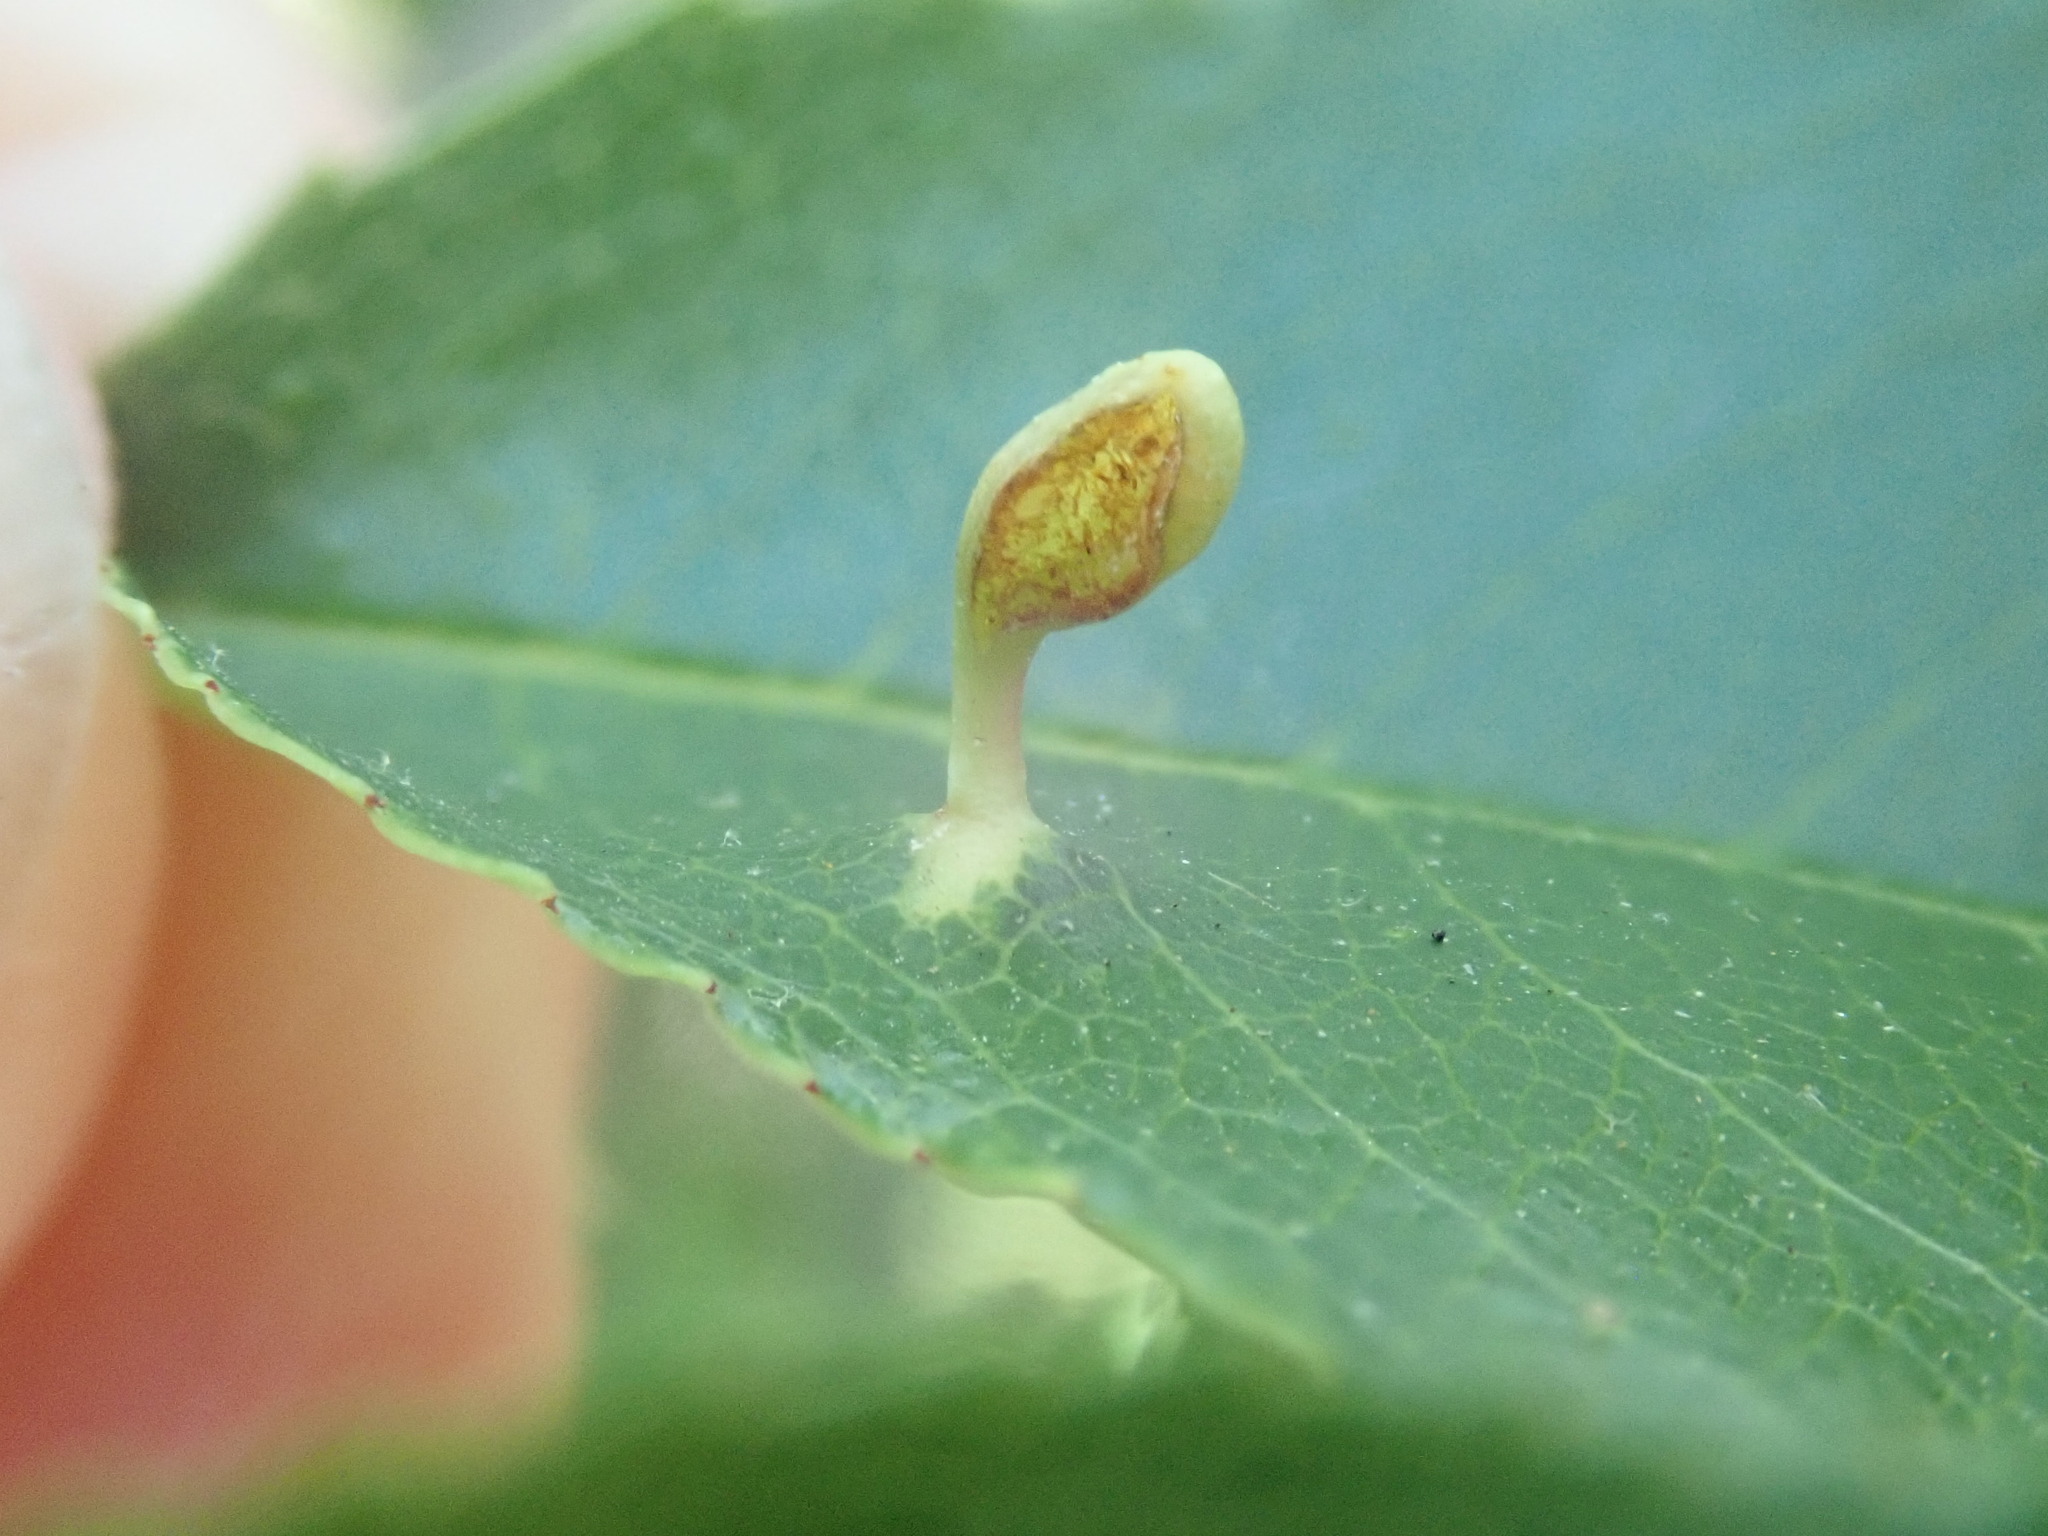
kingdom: Animalia
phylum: Arthropoda
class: Arachnida
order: Trombidiformes
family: Eriophyidae
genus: Eriophyes
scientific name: Eriophyes
